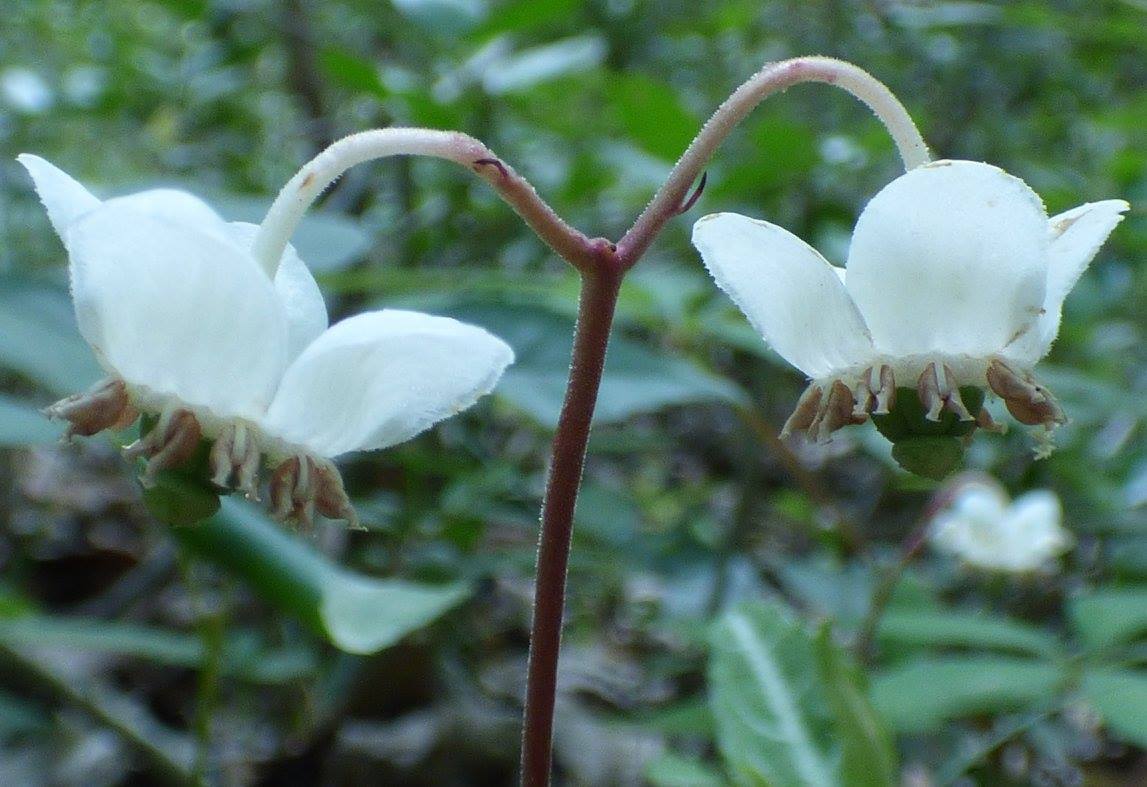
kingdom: Plantae
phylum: Tracheophyta
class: Magnoliopsida
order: Ericales
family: Ericaceae
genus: Chimaphila
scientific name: Chimaphila maculata
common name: Spotted pipsissewa
